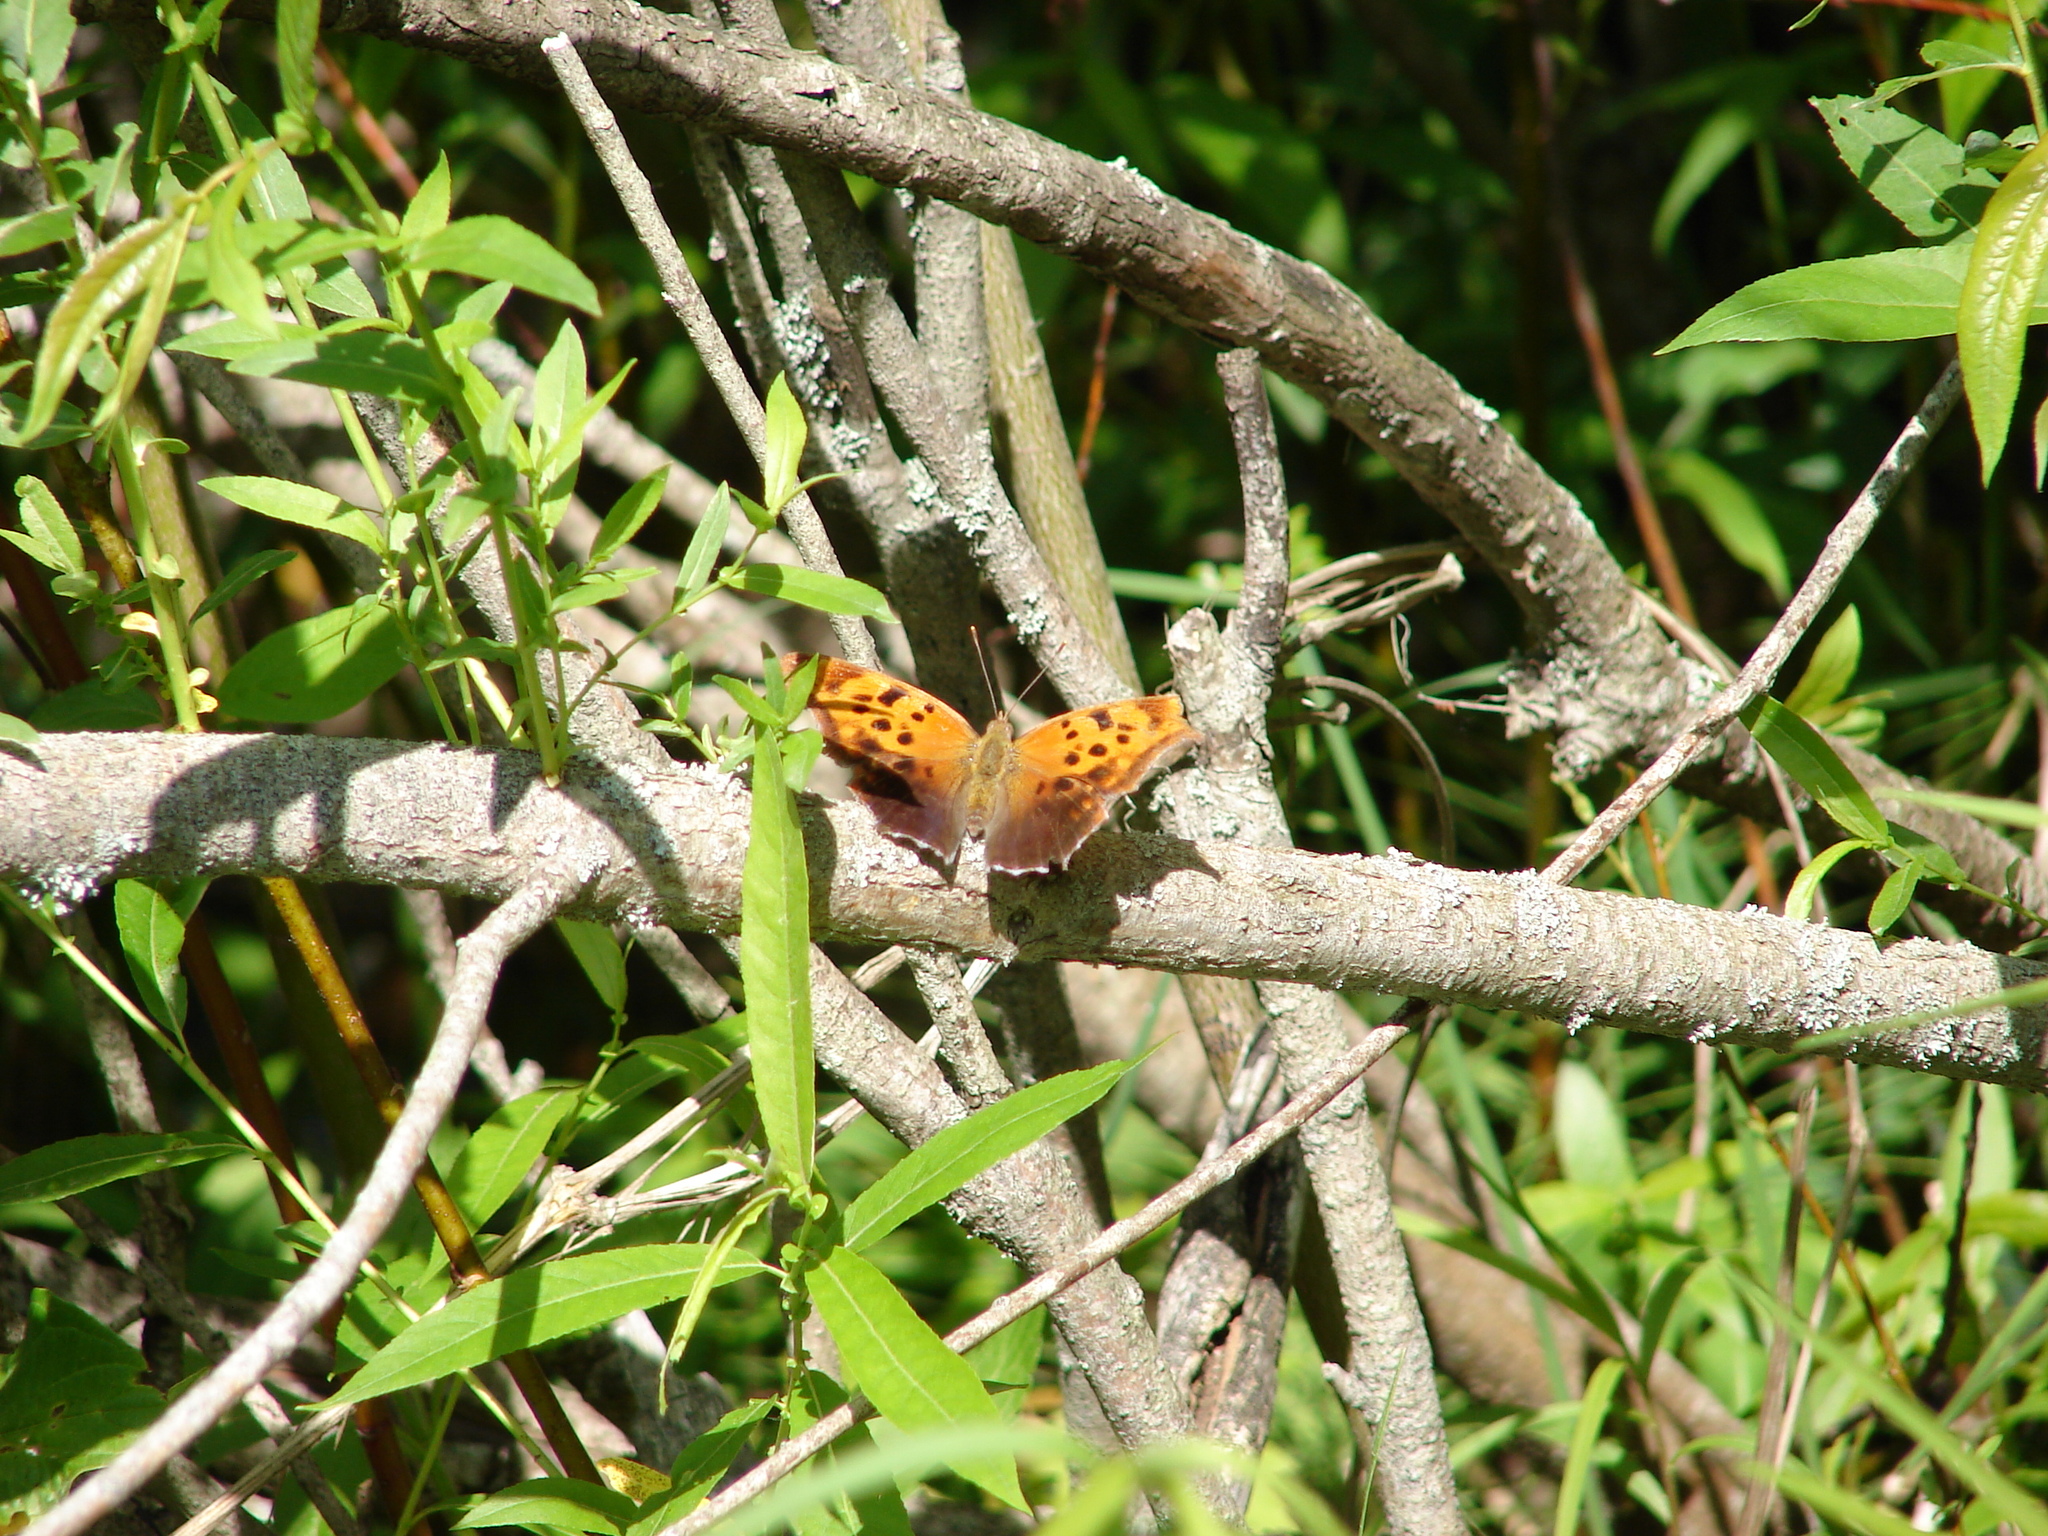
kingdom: Animalia
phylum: Arthropoda
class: Insecta
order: Lepidoptera
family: Nymphalidae
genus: Polygonia
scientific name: Polygonia interrogationis
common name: Question mark
